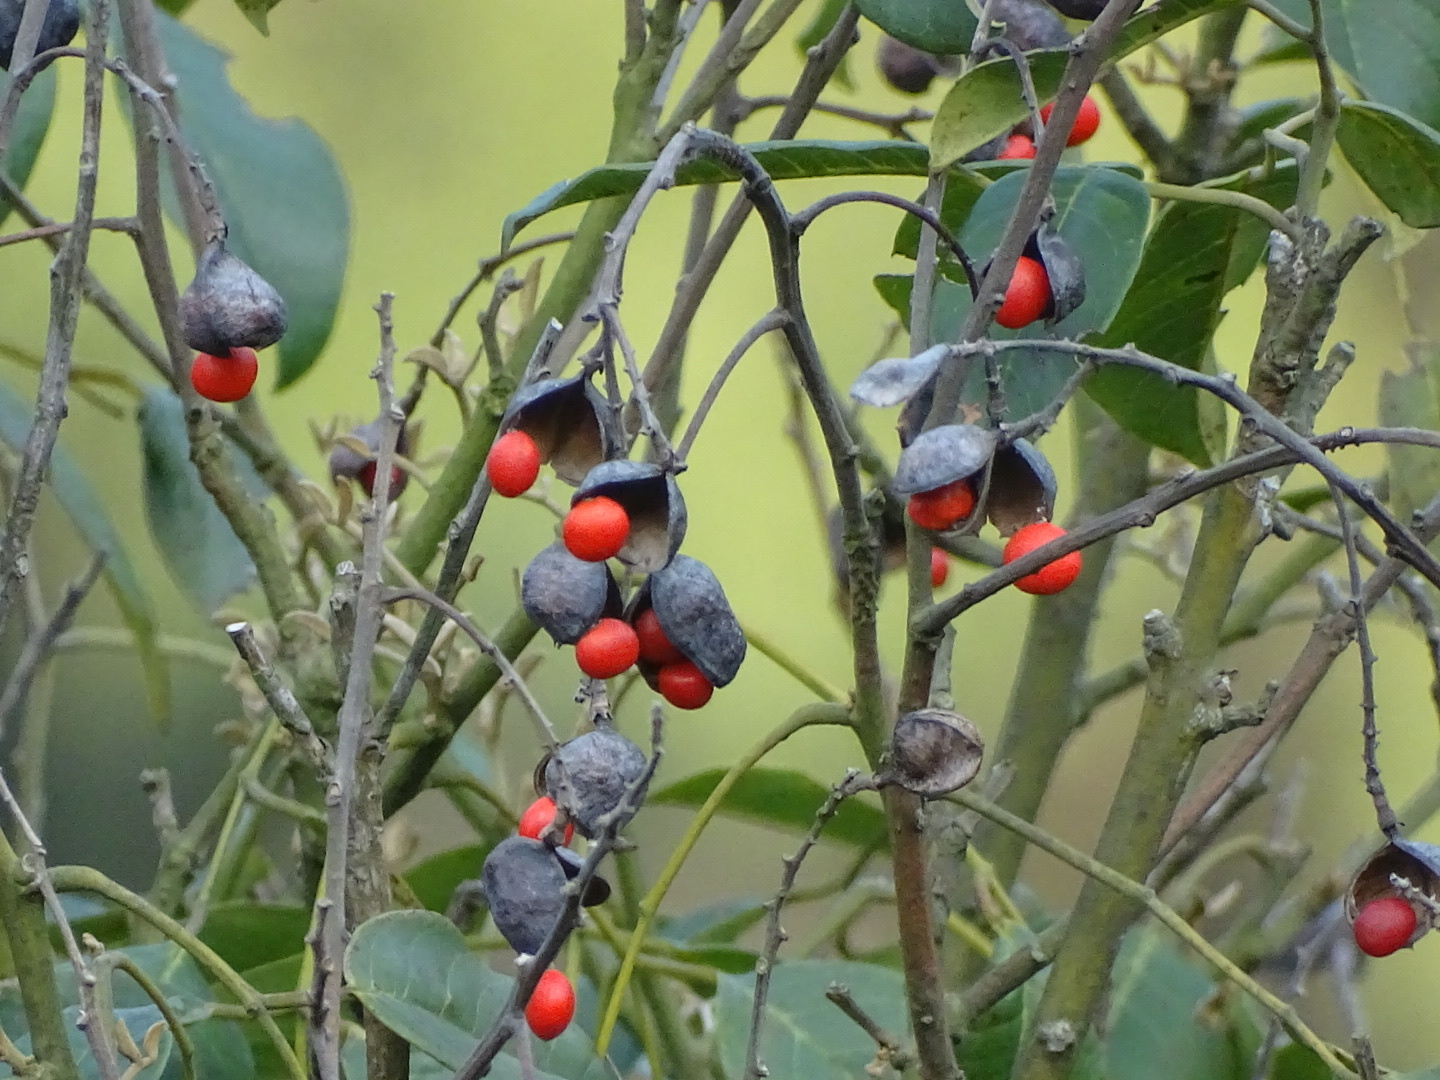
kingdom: Plantae
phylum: Tracheophyta
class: Magnoliopsida
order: Fabales
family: Fabaceae
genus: Ormosia
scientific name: Ormosia semicastrata
